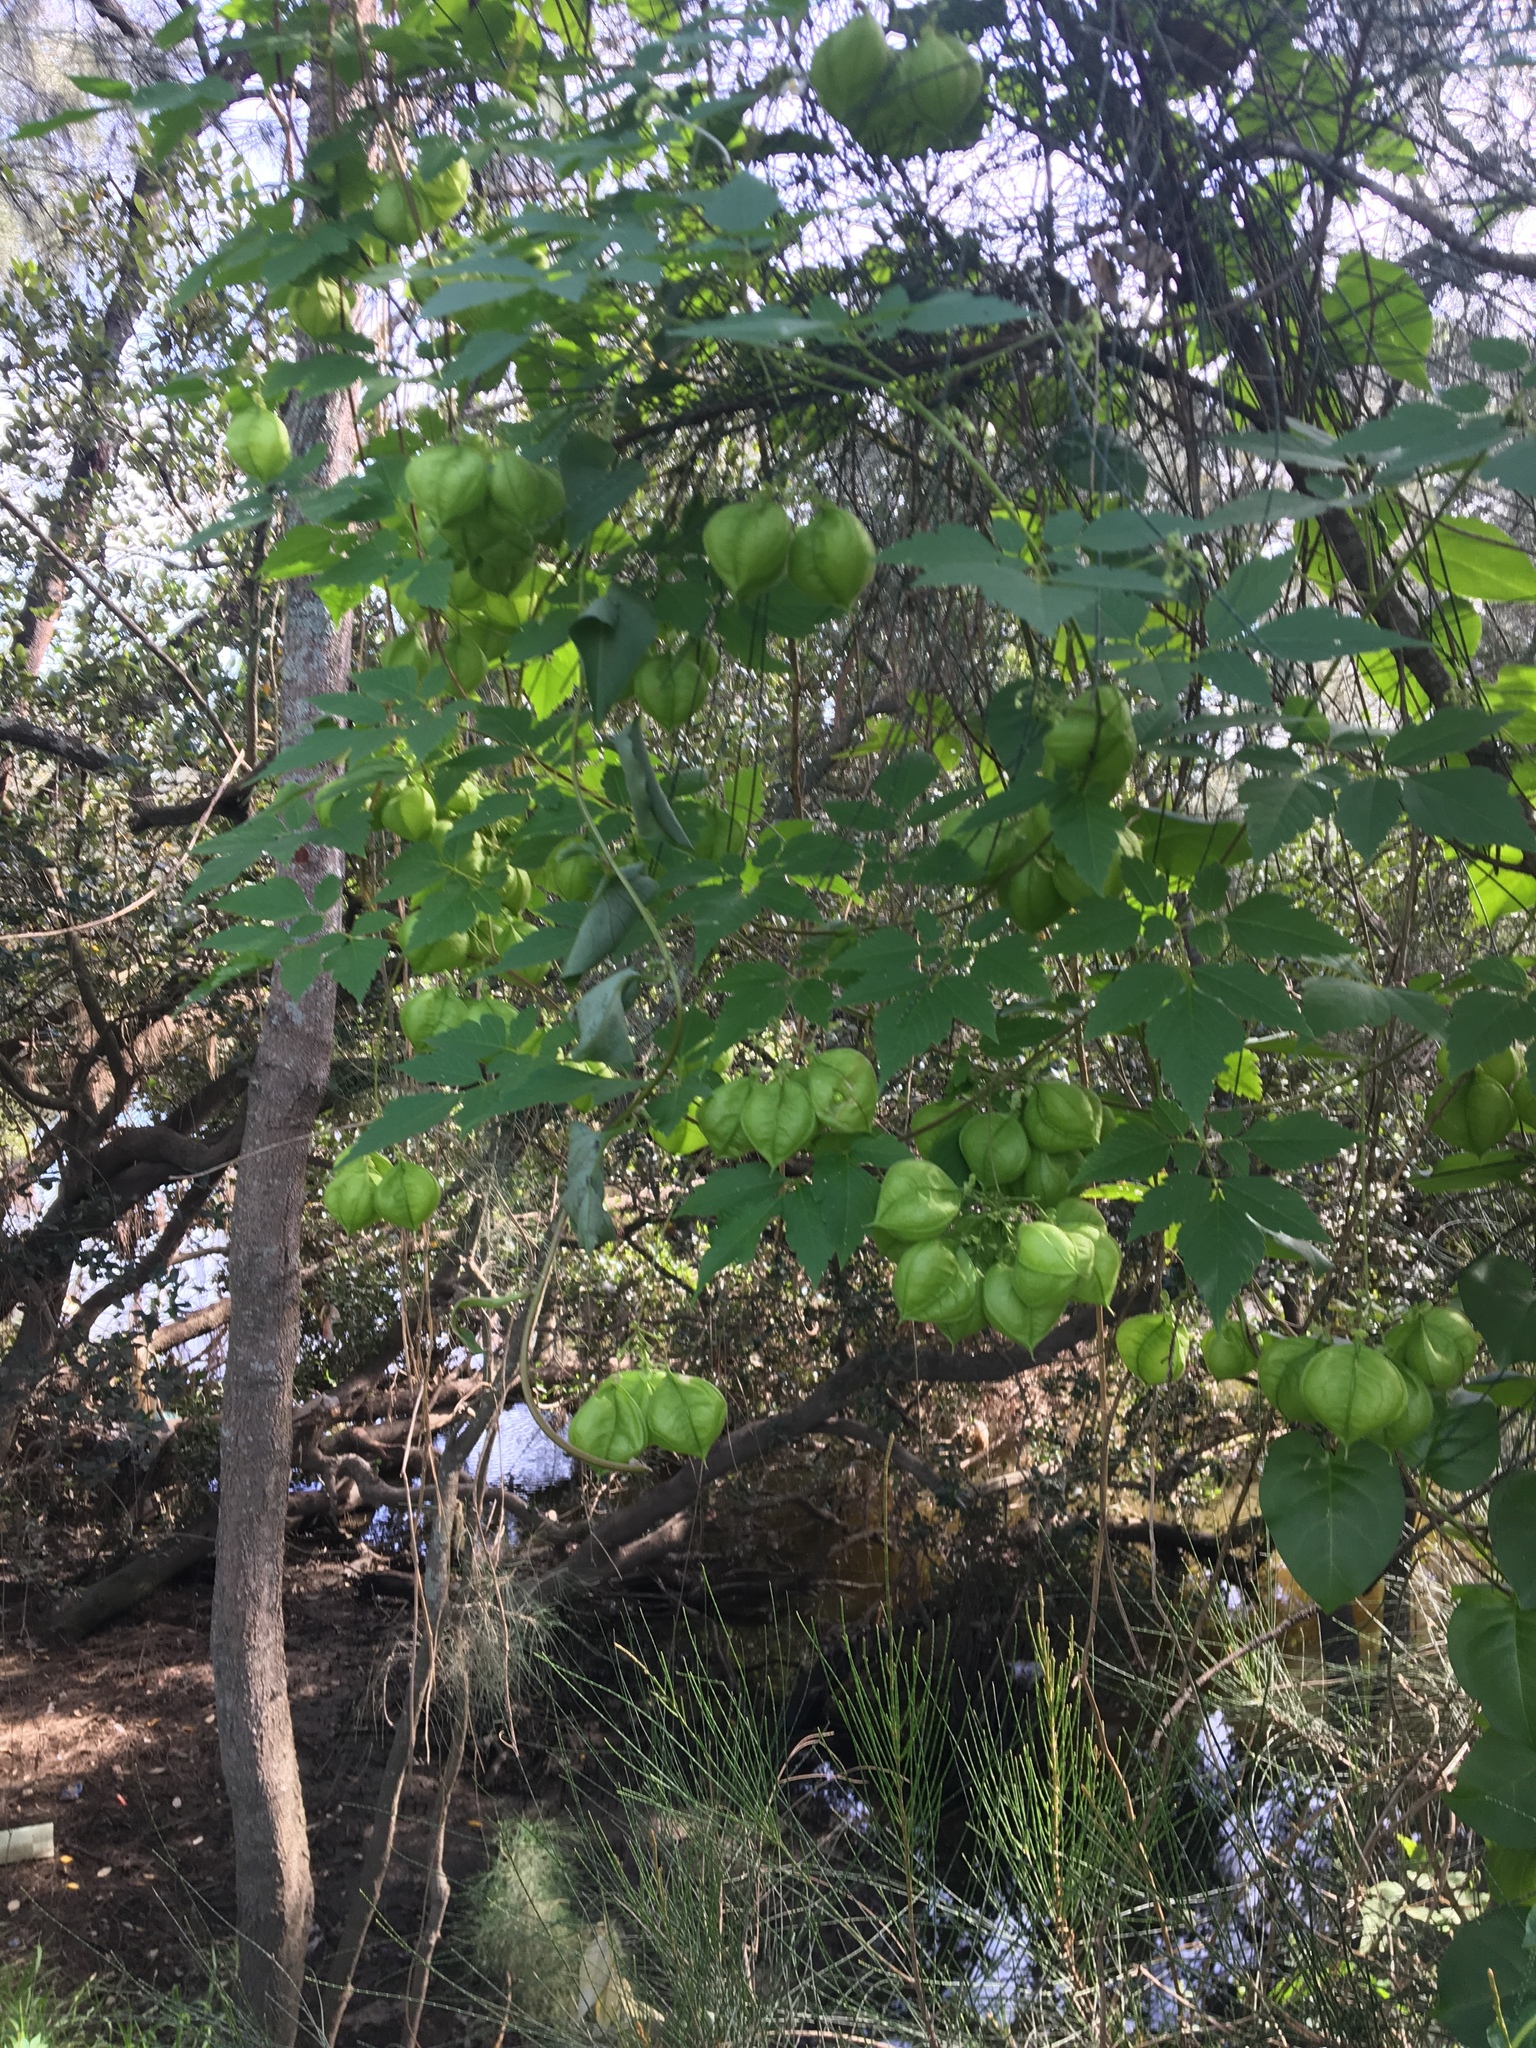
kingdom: Plantae
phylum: Tracheophyta
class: Magnoliopsida
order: Sapindales
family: Sapindaceae
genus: Cardiospermum
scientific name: Cardiospermum grandiflorum
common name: Balloon vine
